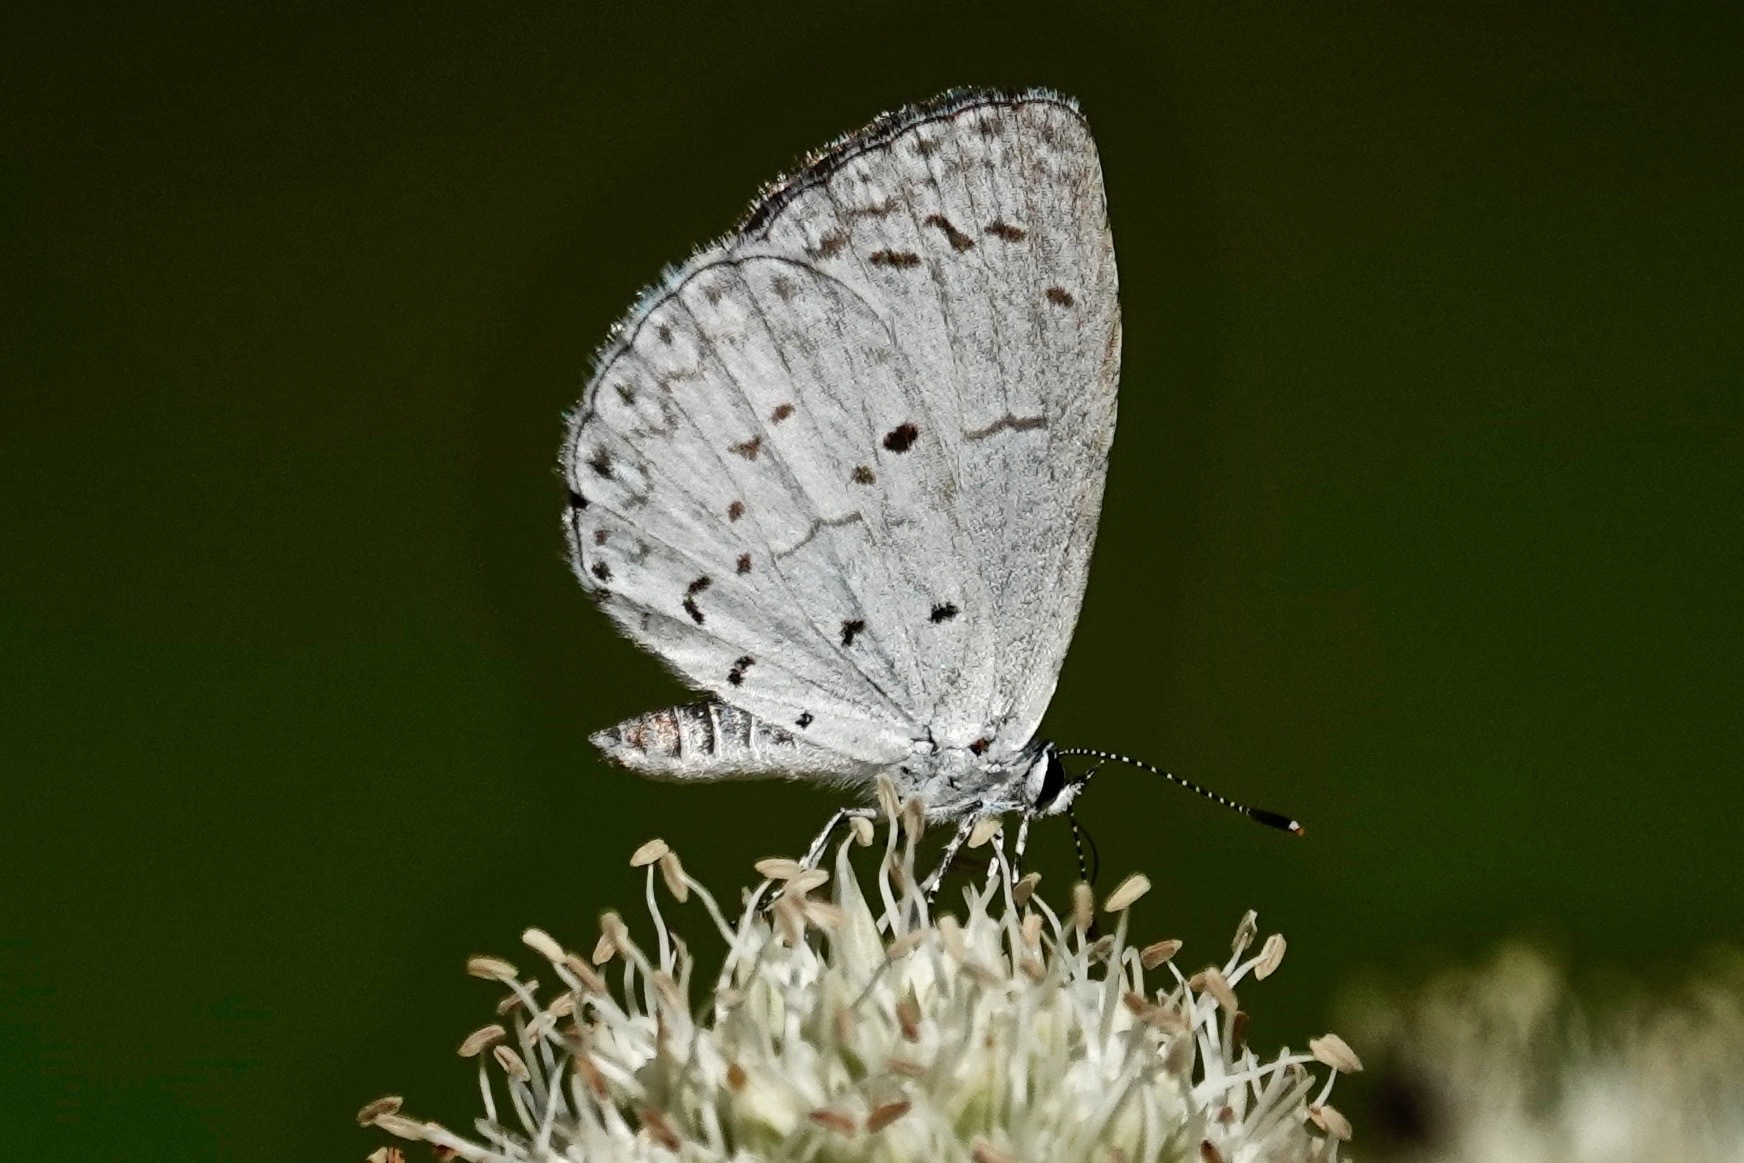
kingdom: Animalia
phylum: Arthropoda
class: Insecta
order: Lepidoptera
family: Lycaenidae
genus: Cyaniris
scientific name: Cyaniris neglecta
